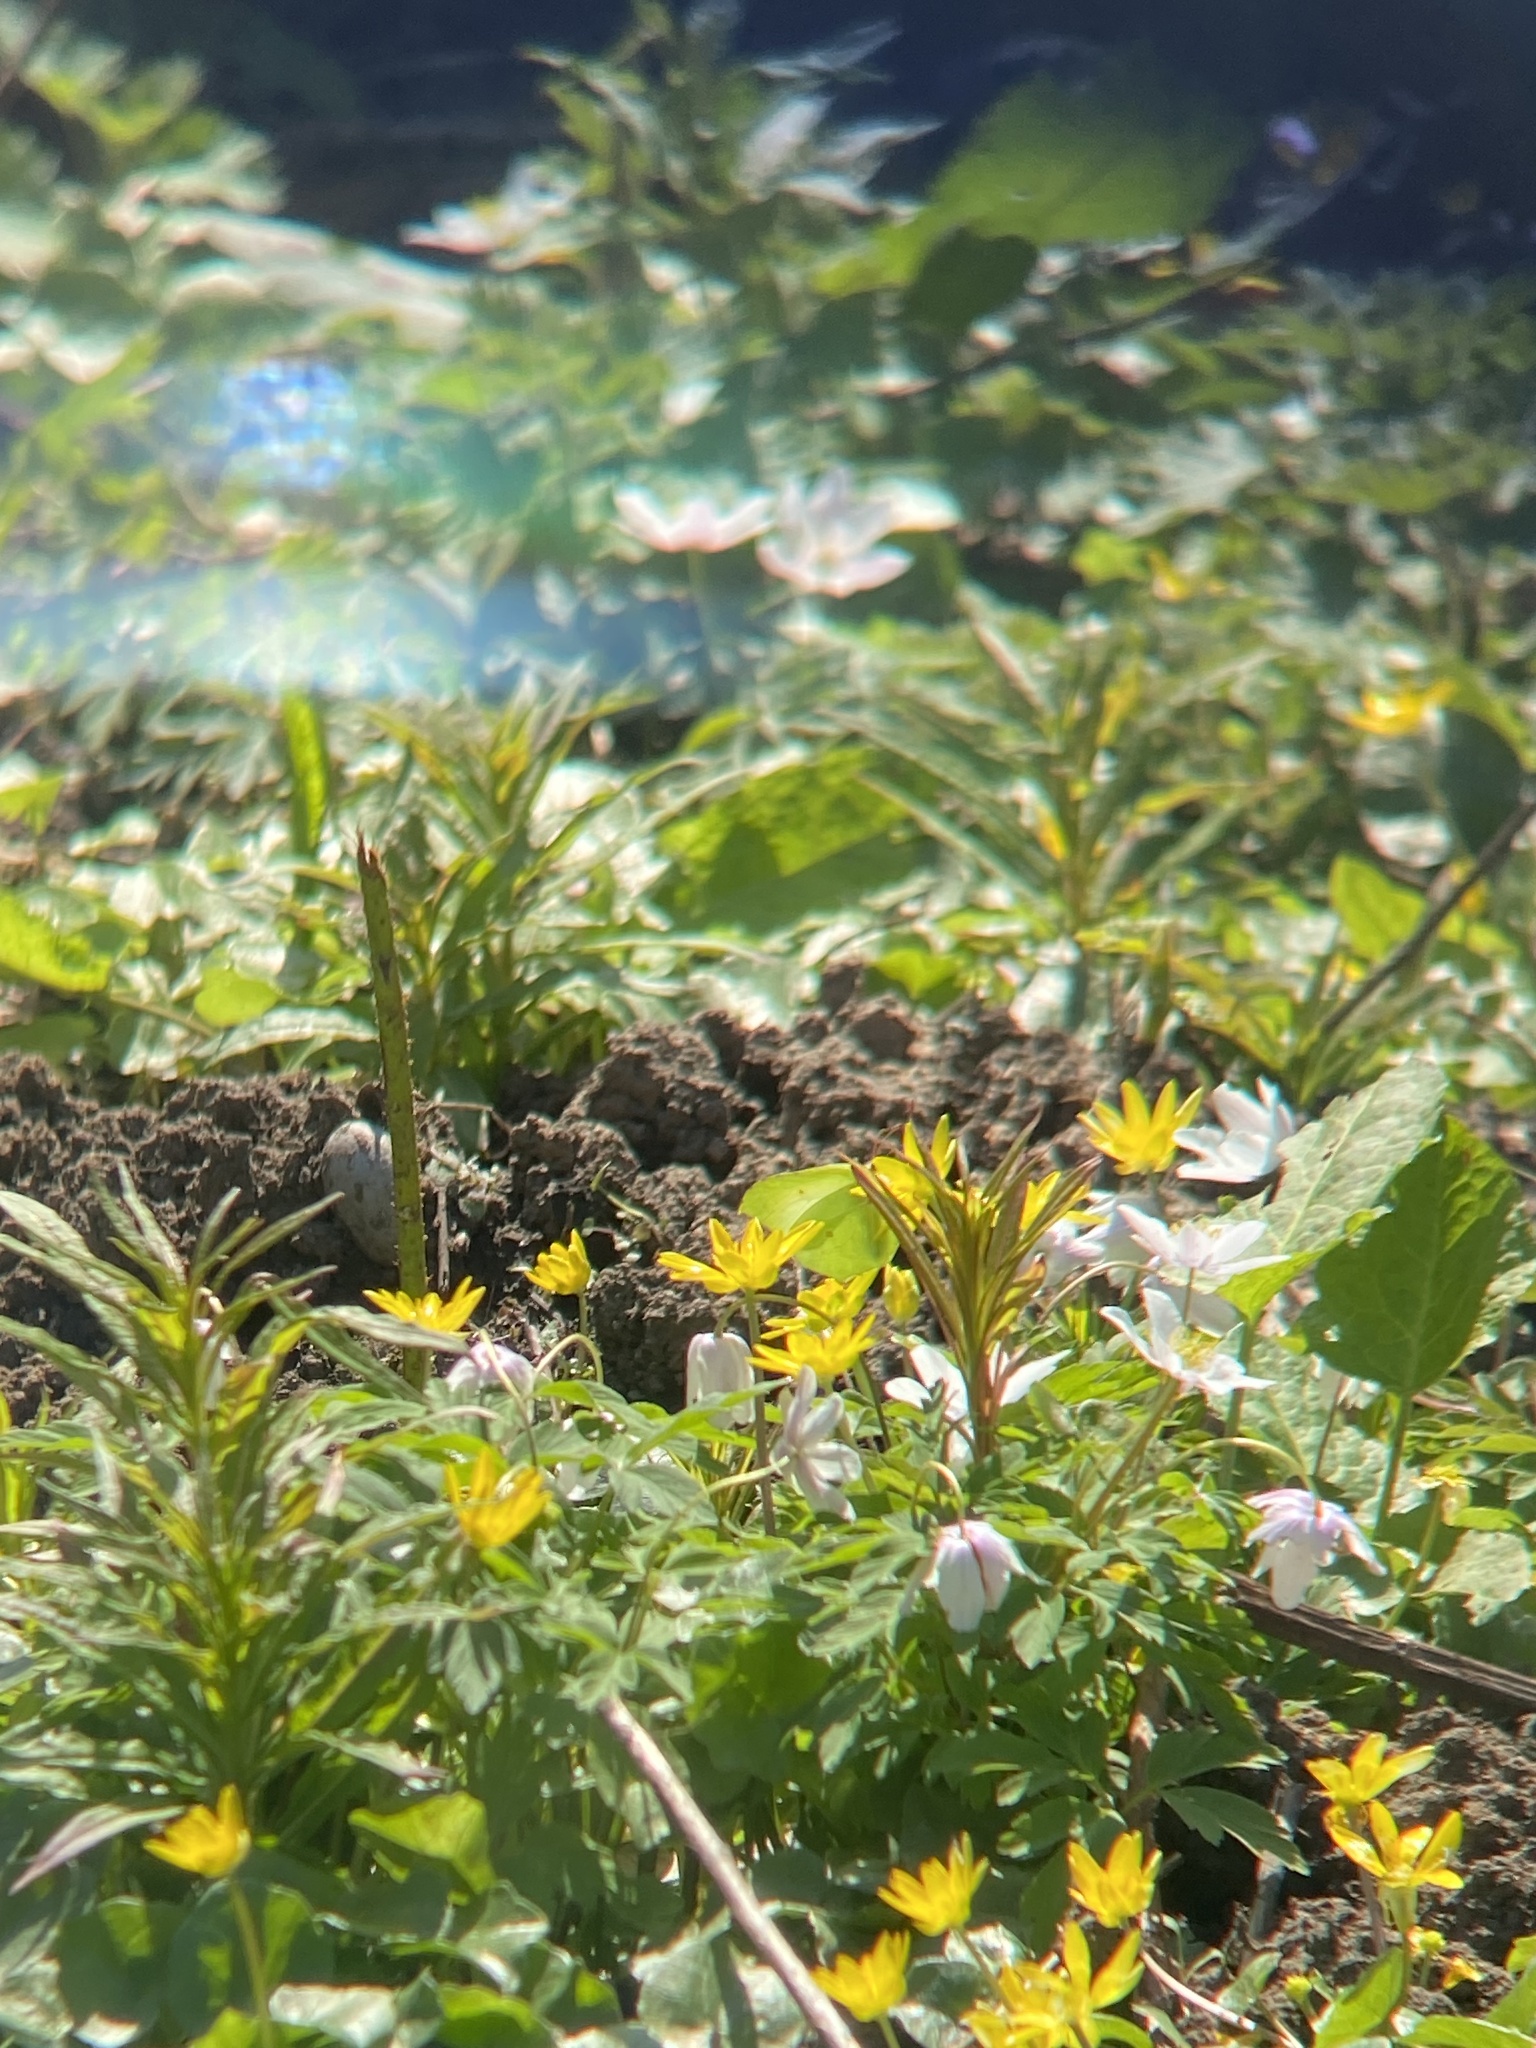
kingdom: Animalia
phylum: Arthropoda
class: Insecta
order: Lepidoptera
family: Pieridae
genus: Gonepteryx
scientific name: Gonepteryx rhamni
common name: Brimstone
